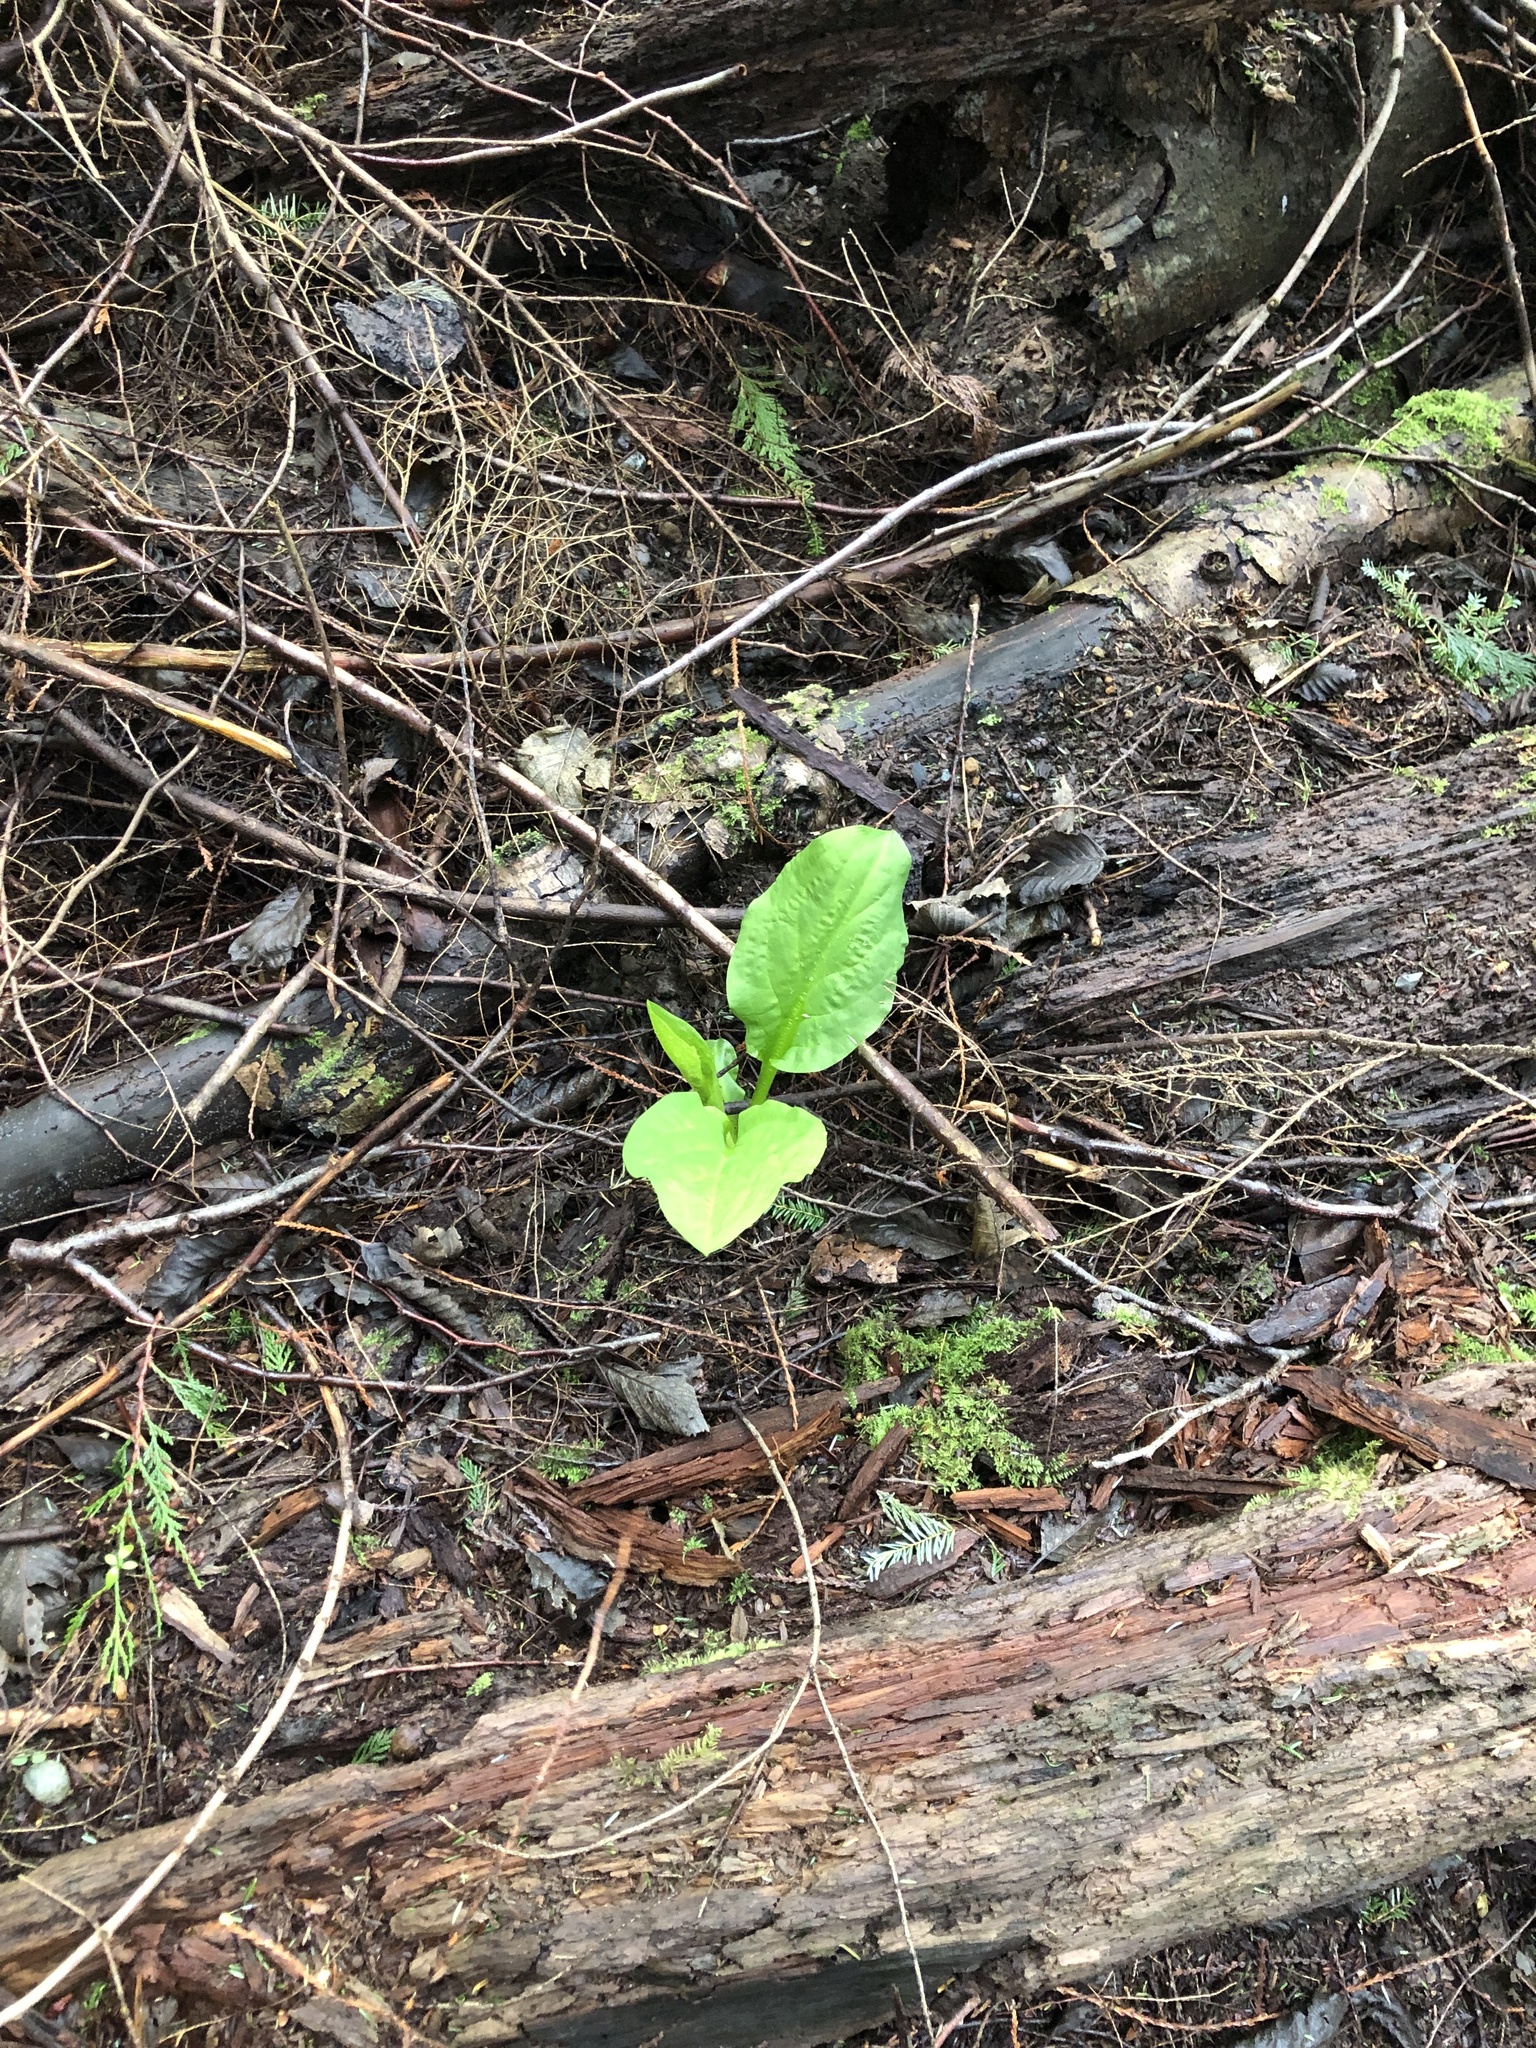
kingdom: Plantae
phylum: Tracheophyta
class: Liliopsida
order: Alismatales
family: Araceae
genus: Lysichiton
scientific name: Lysichiton americanus
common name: American skunk cabbage
